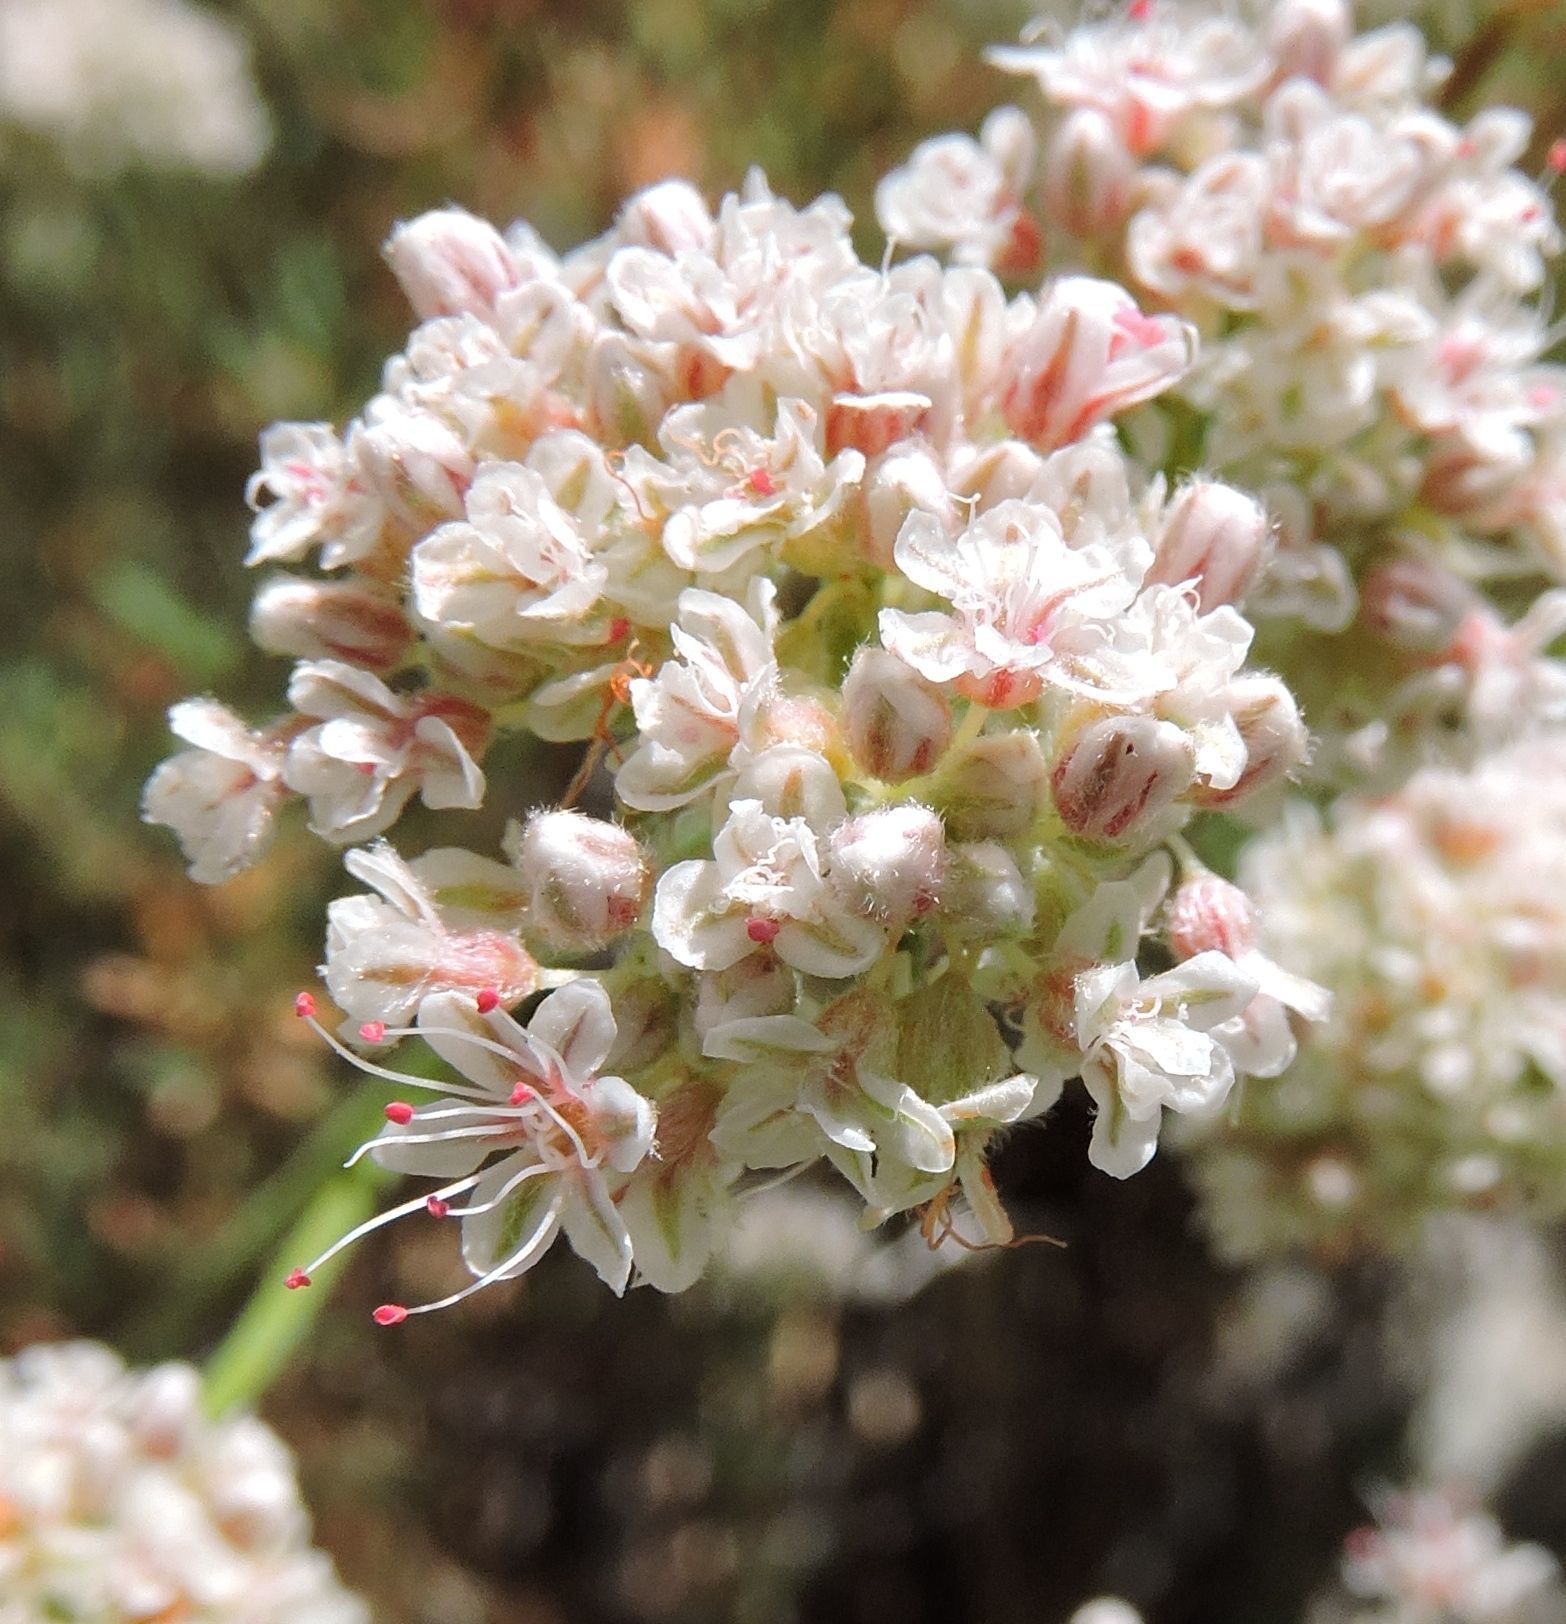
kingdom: Plantae
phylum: Tracheophyta
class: Magnoliopsida
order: Caryophyllales
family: Polygonaceae
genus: Eriogonum
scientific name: Eriogonum fasciculatum
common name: California wild buckwheat
